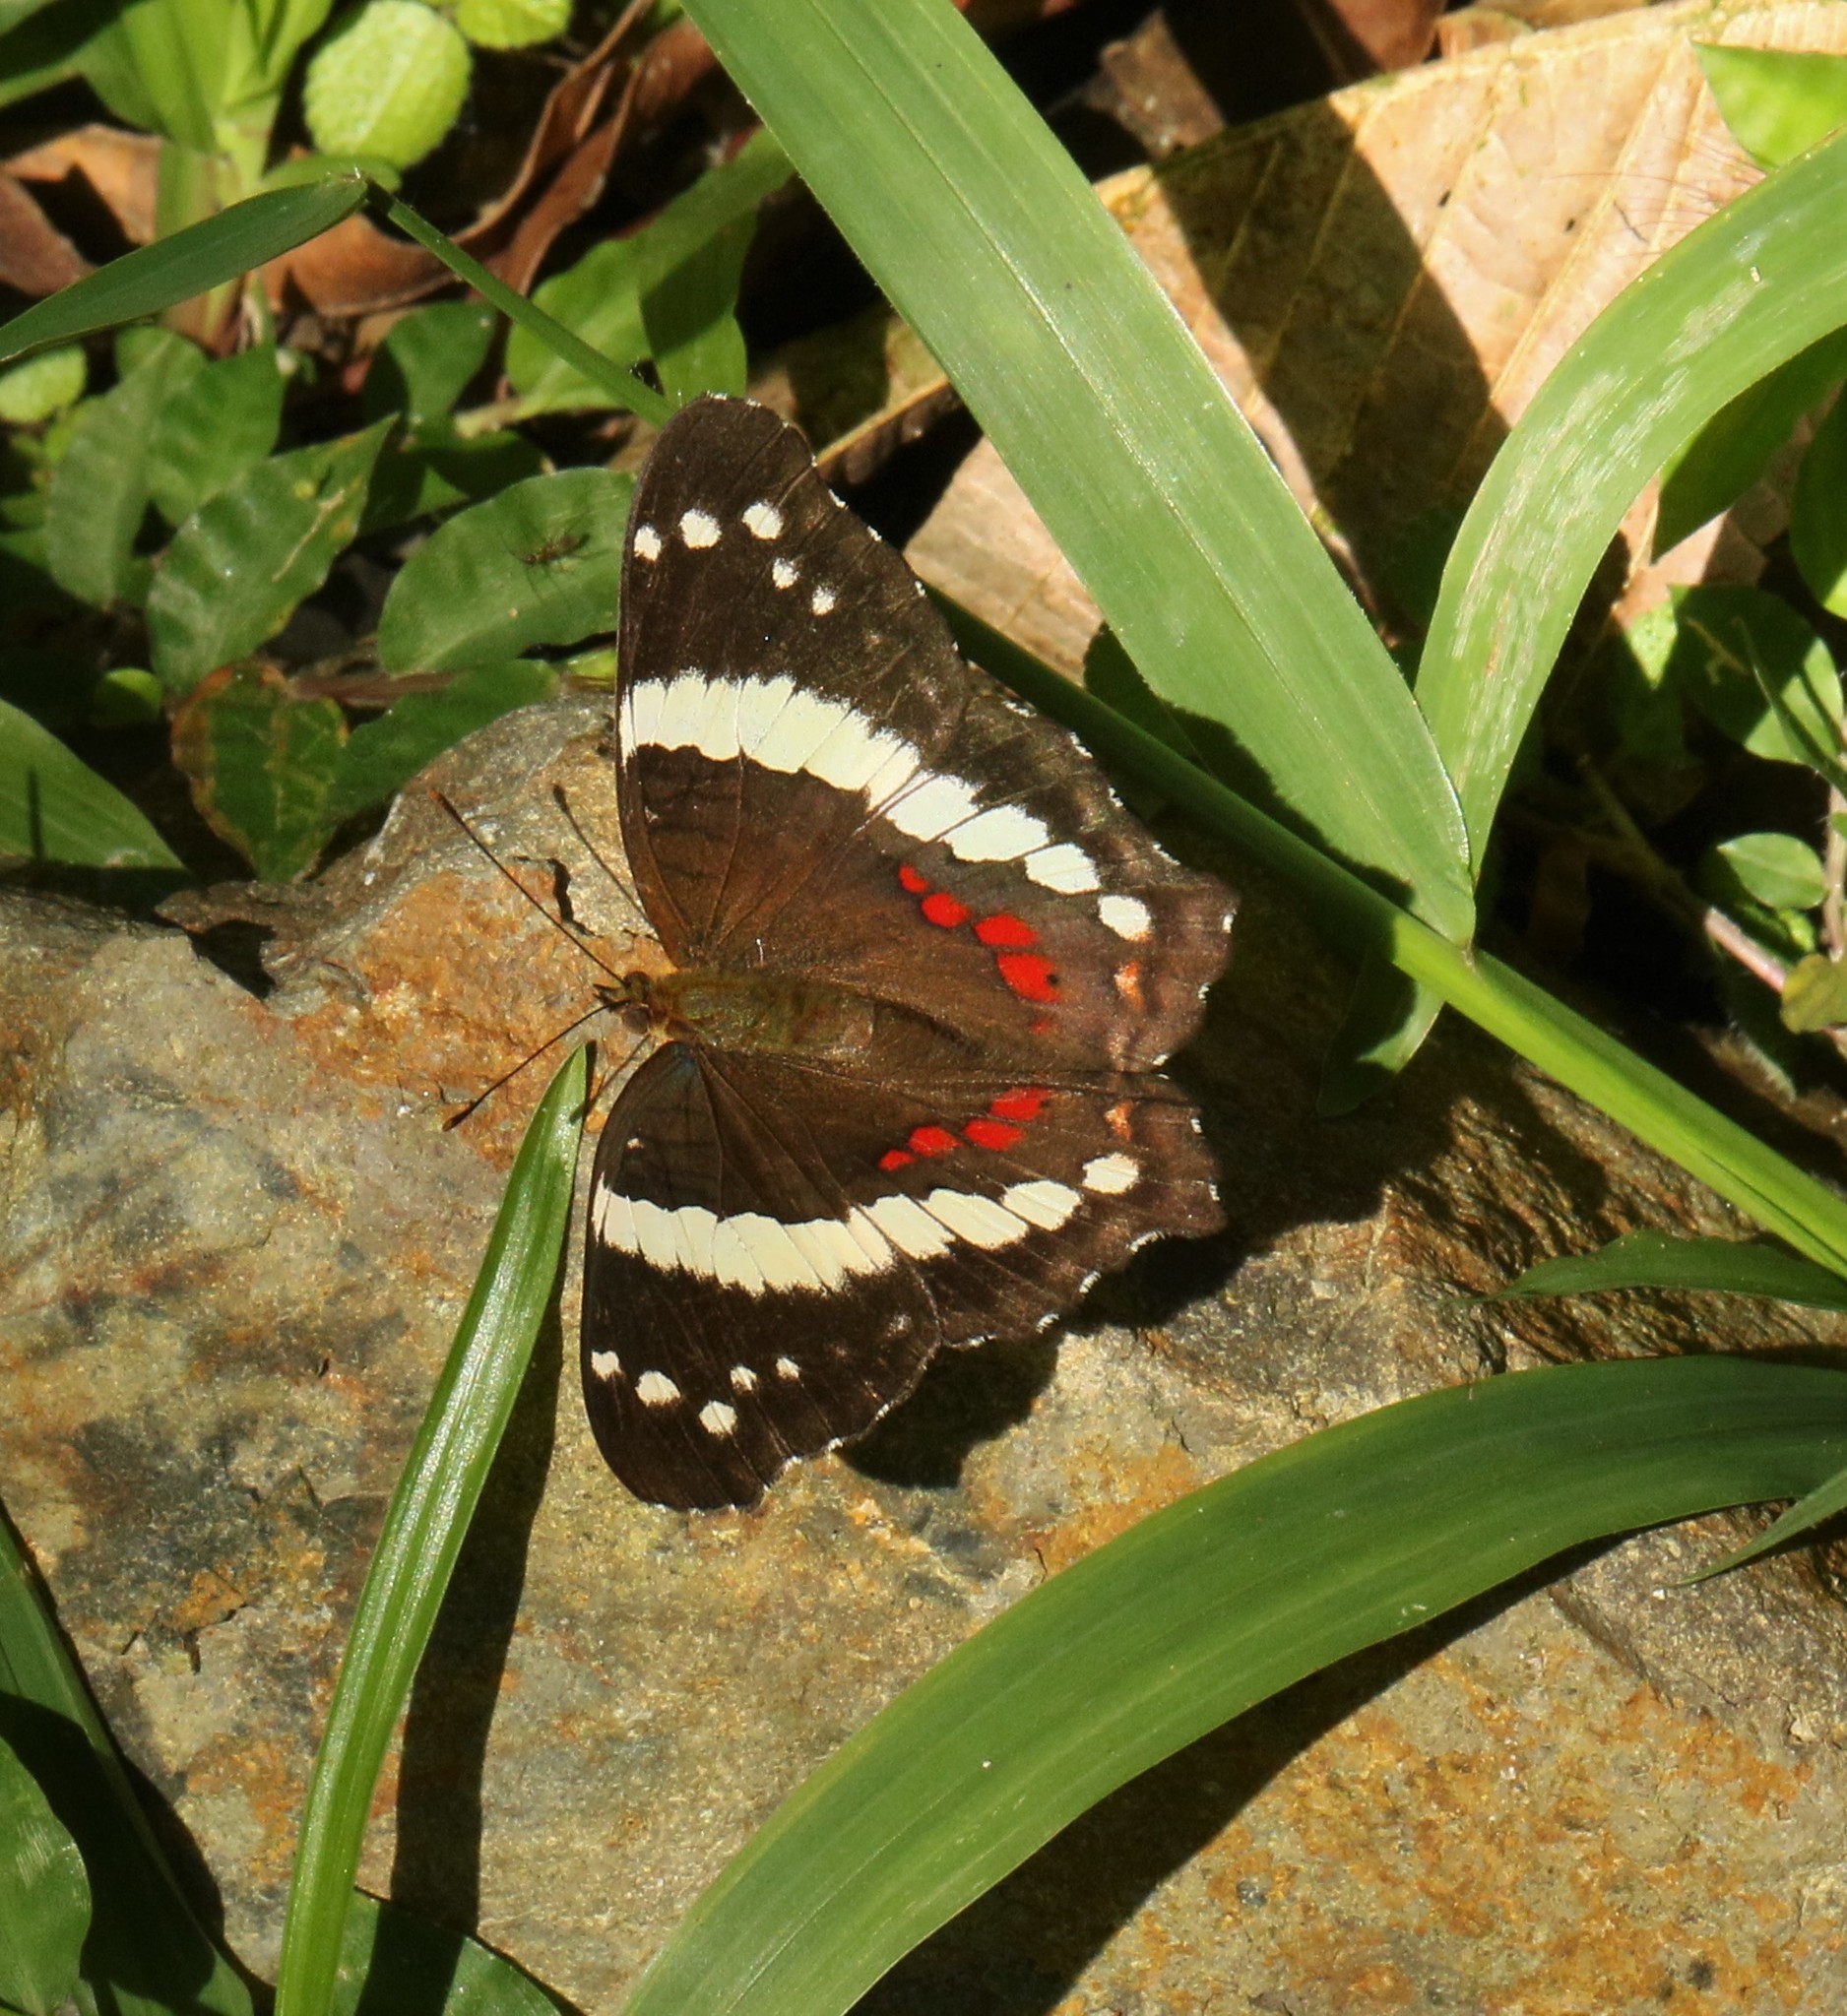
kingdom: Animalia
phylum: Arthropoda
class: Insecta
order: Lepidoptera
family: Nymphalidae
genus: Anartia
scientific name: Anartia fatima
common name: Banded peacock
